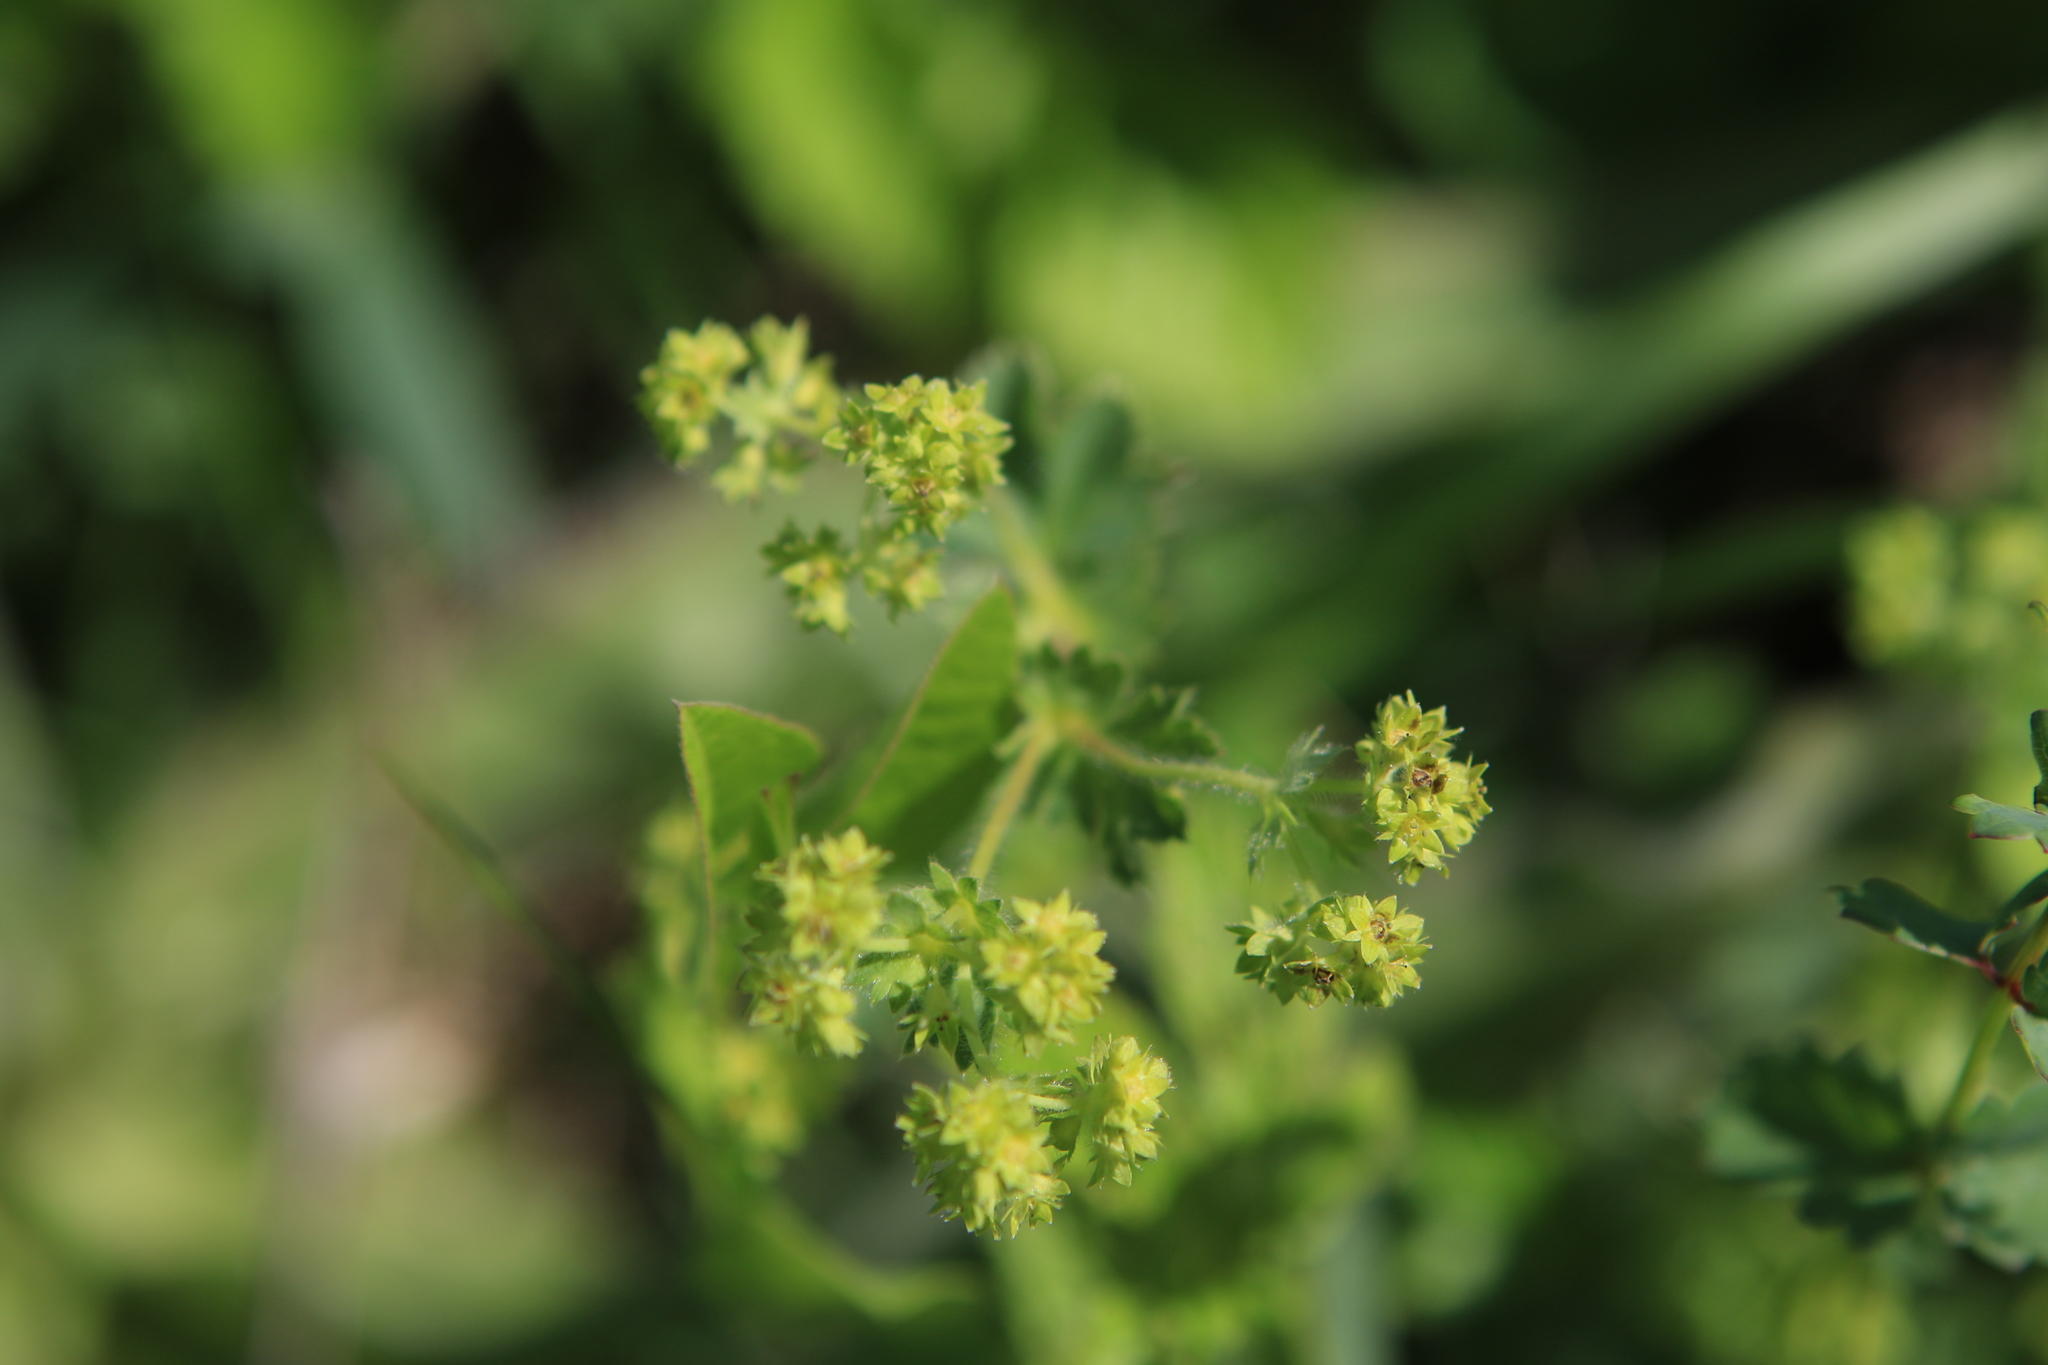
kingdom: Plantae
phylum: Tracheophyta
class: Magnoliopsida
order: Rosales
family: Rosaceae
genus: Alchemilla
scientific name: Alchemilla
